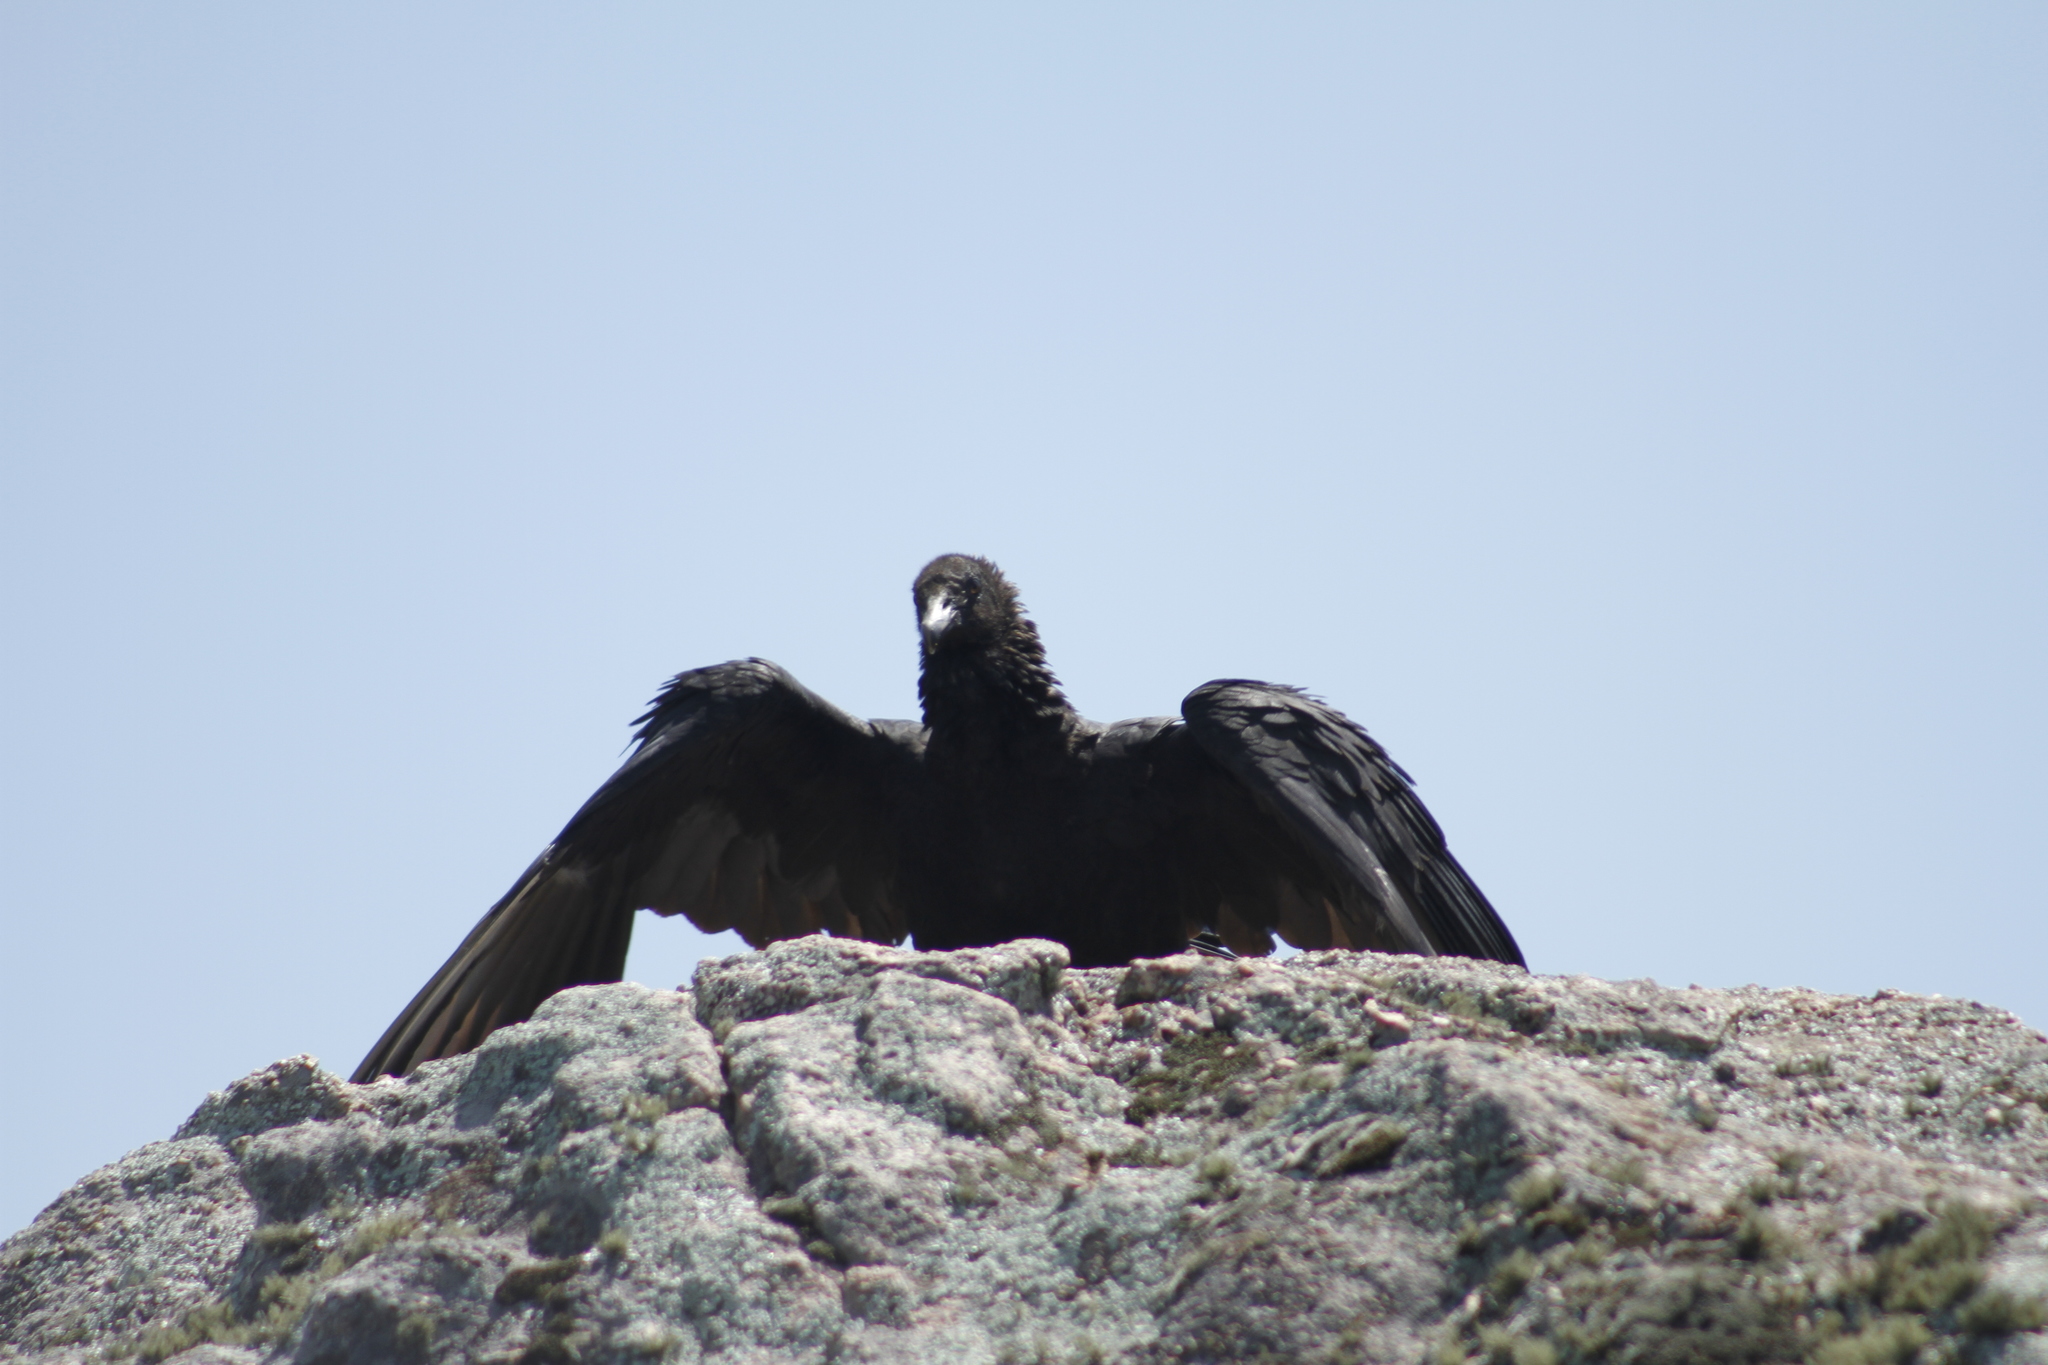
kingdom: Animalia
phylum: Chordata
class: Aves
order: Accipitriformes
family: Cathartidae
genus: Coragyps
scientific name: Coragyps atratus
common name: Black vulture
